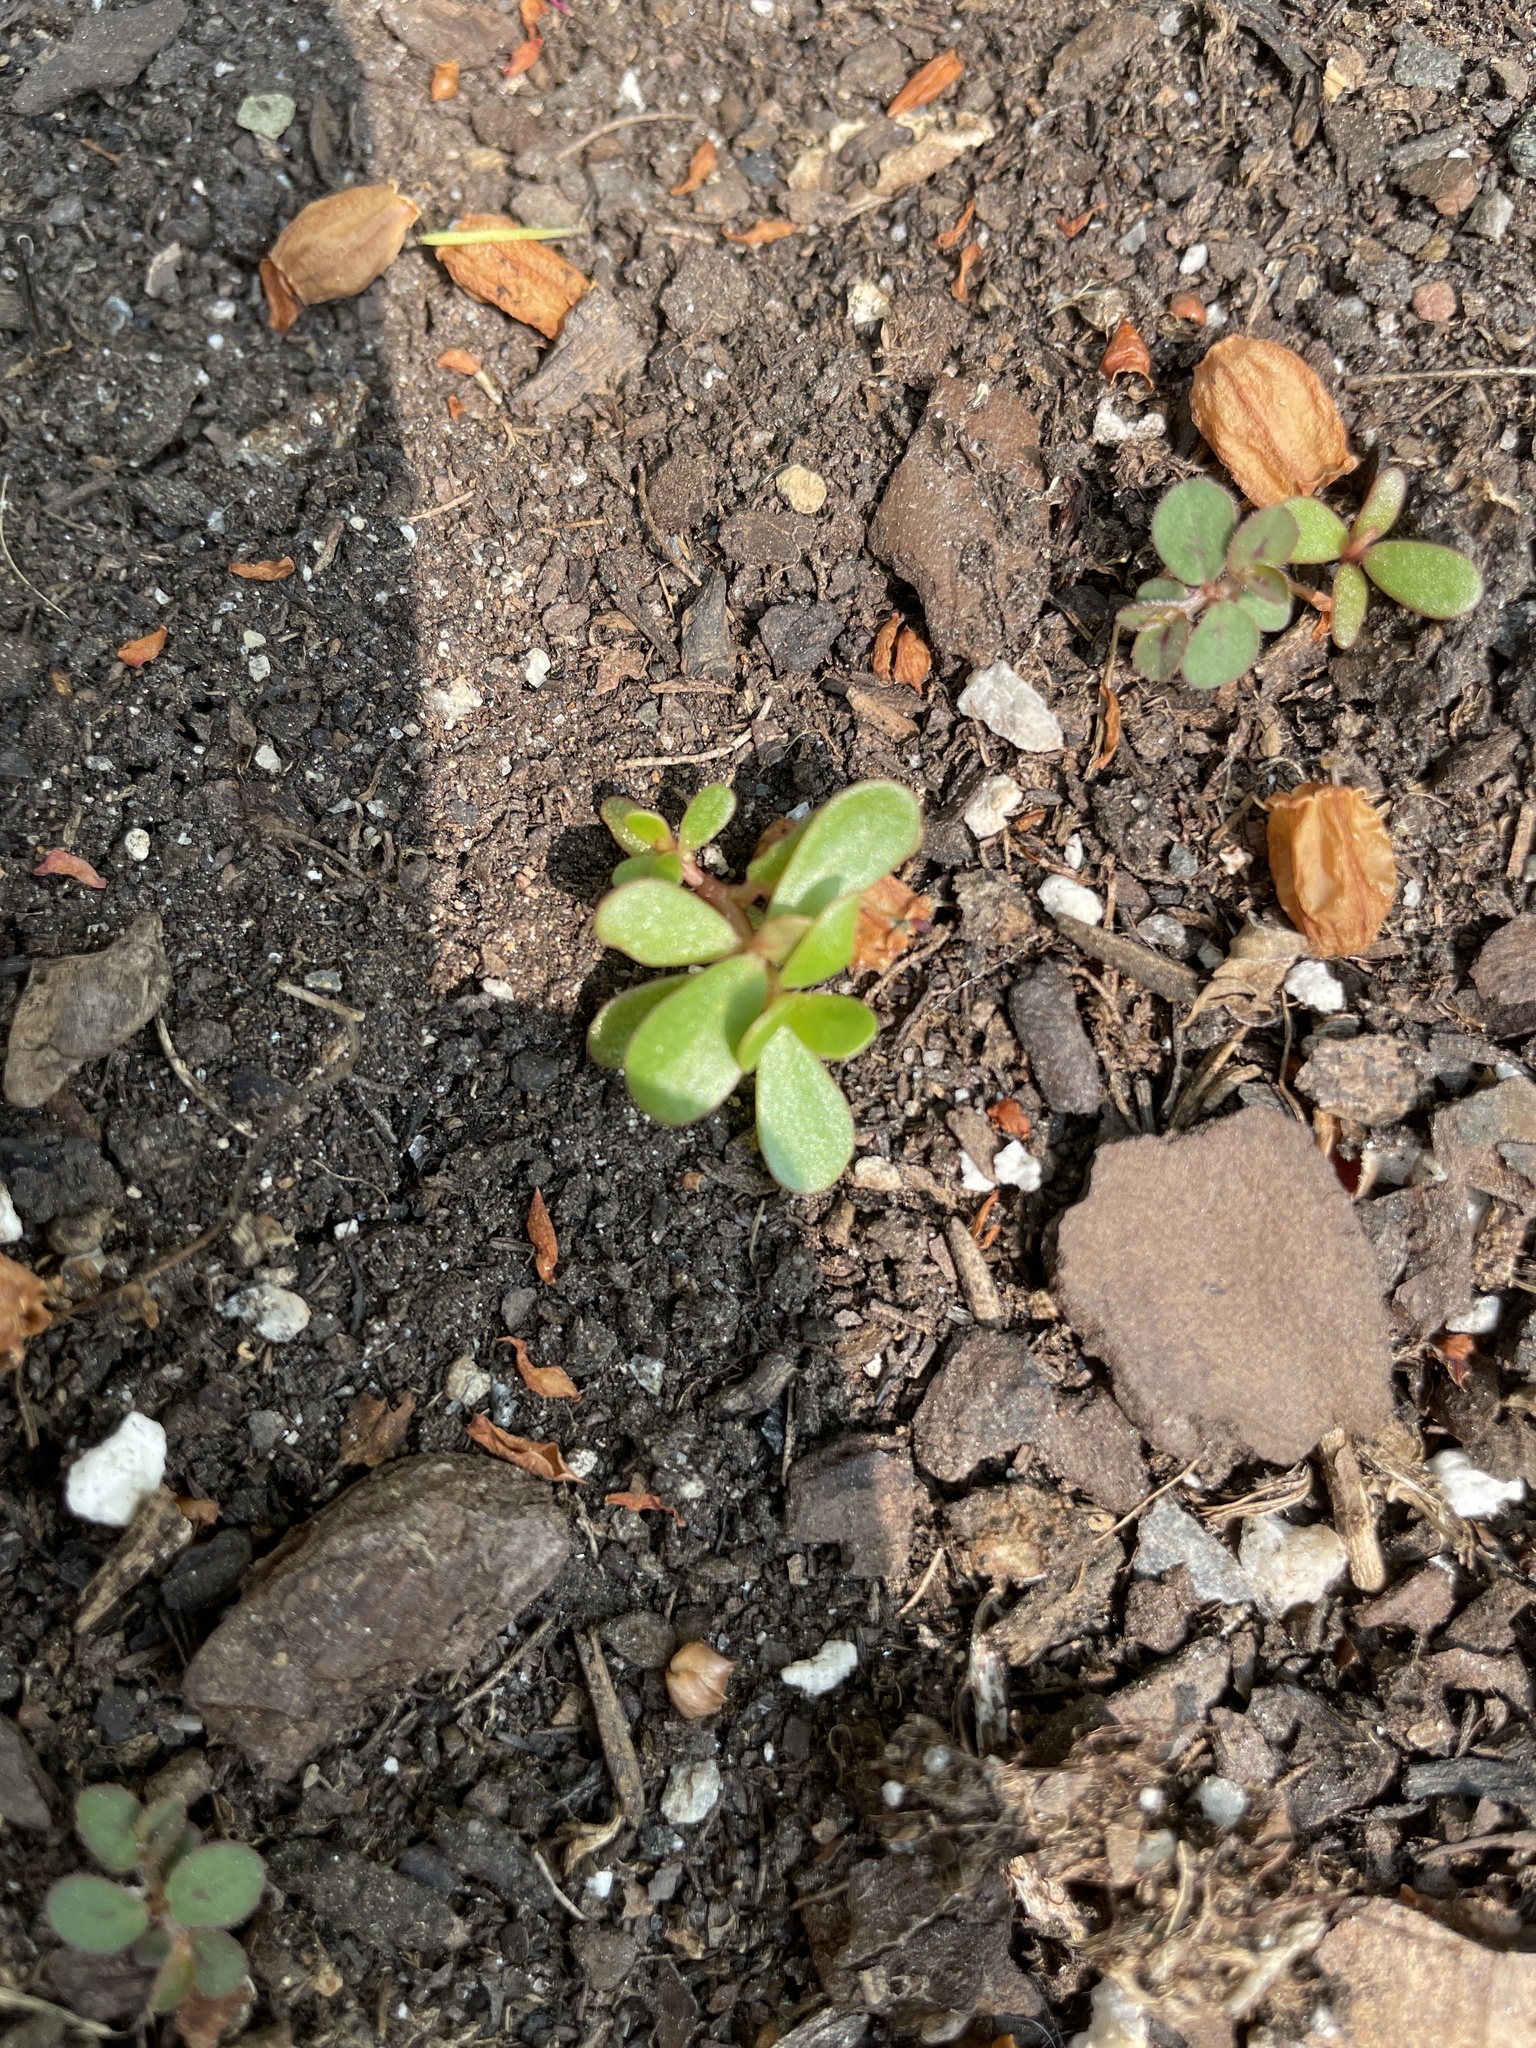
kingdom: Plantae
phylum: Tracheophyta
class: Magnoliopsida
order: Caryophyllales
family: Portulacaceae
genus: Portulaca
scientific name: Portulaca oleracea
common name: Common purslane
